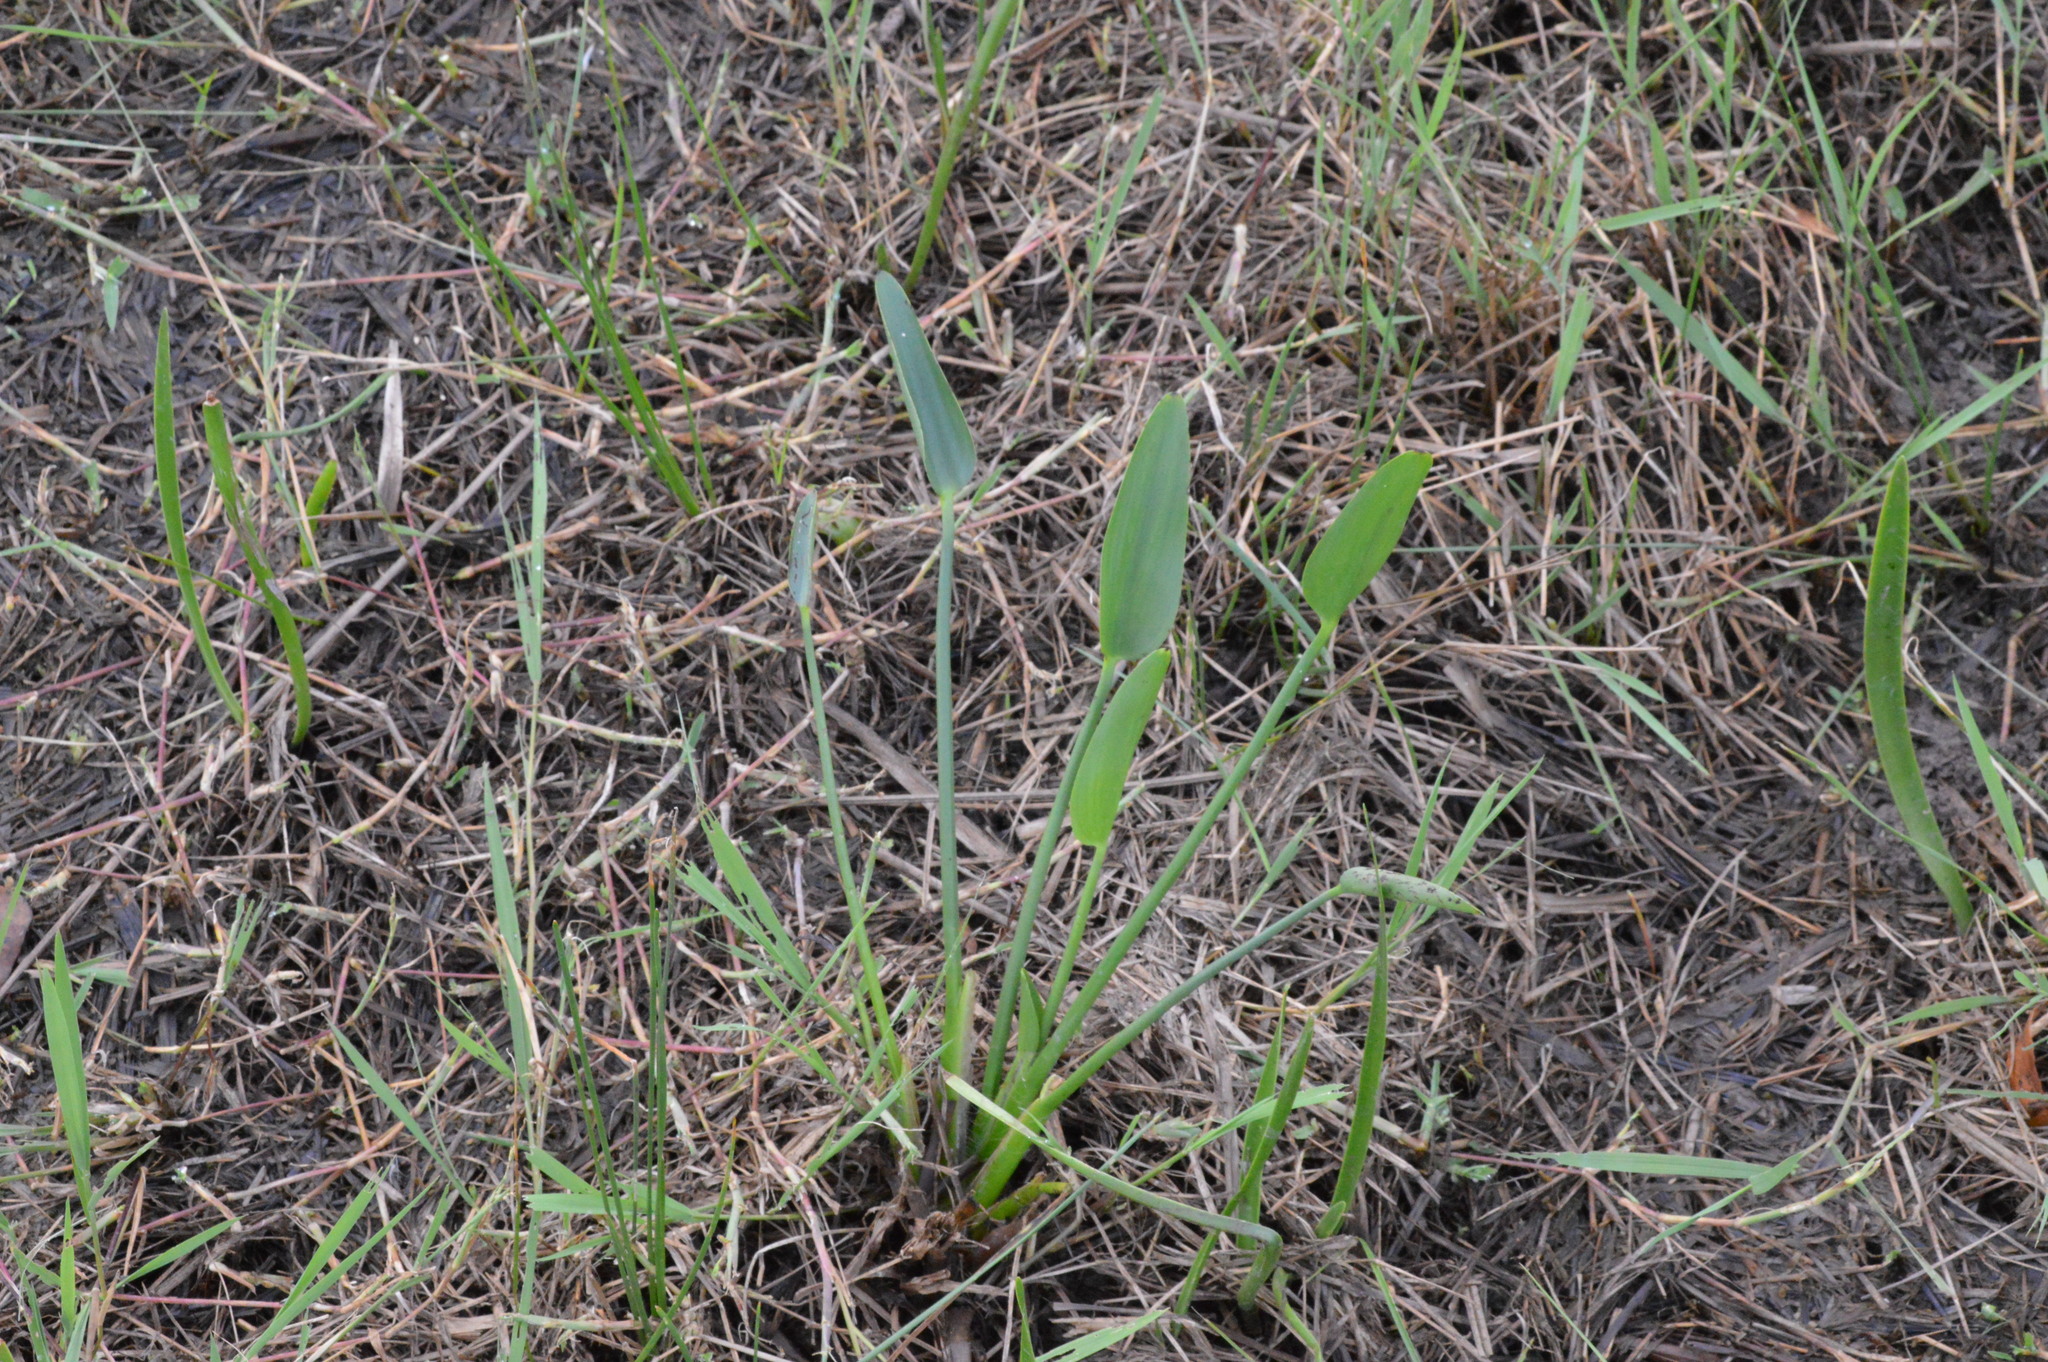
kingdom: Plantae
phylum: Tracheophyta
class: Liliopsida
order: Commelinales
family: Pontederiaceae
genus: Pontederia
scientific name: Pontederia cordata
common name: Pickerelweed
